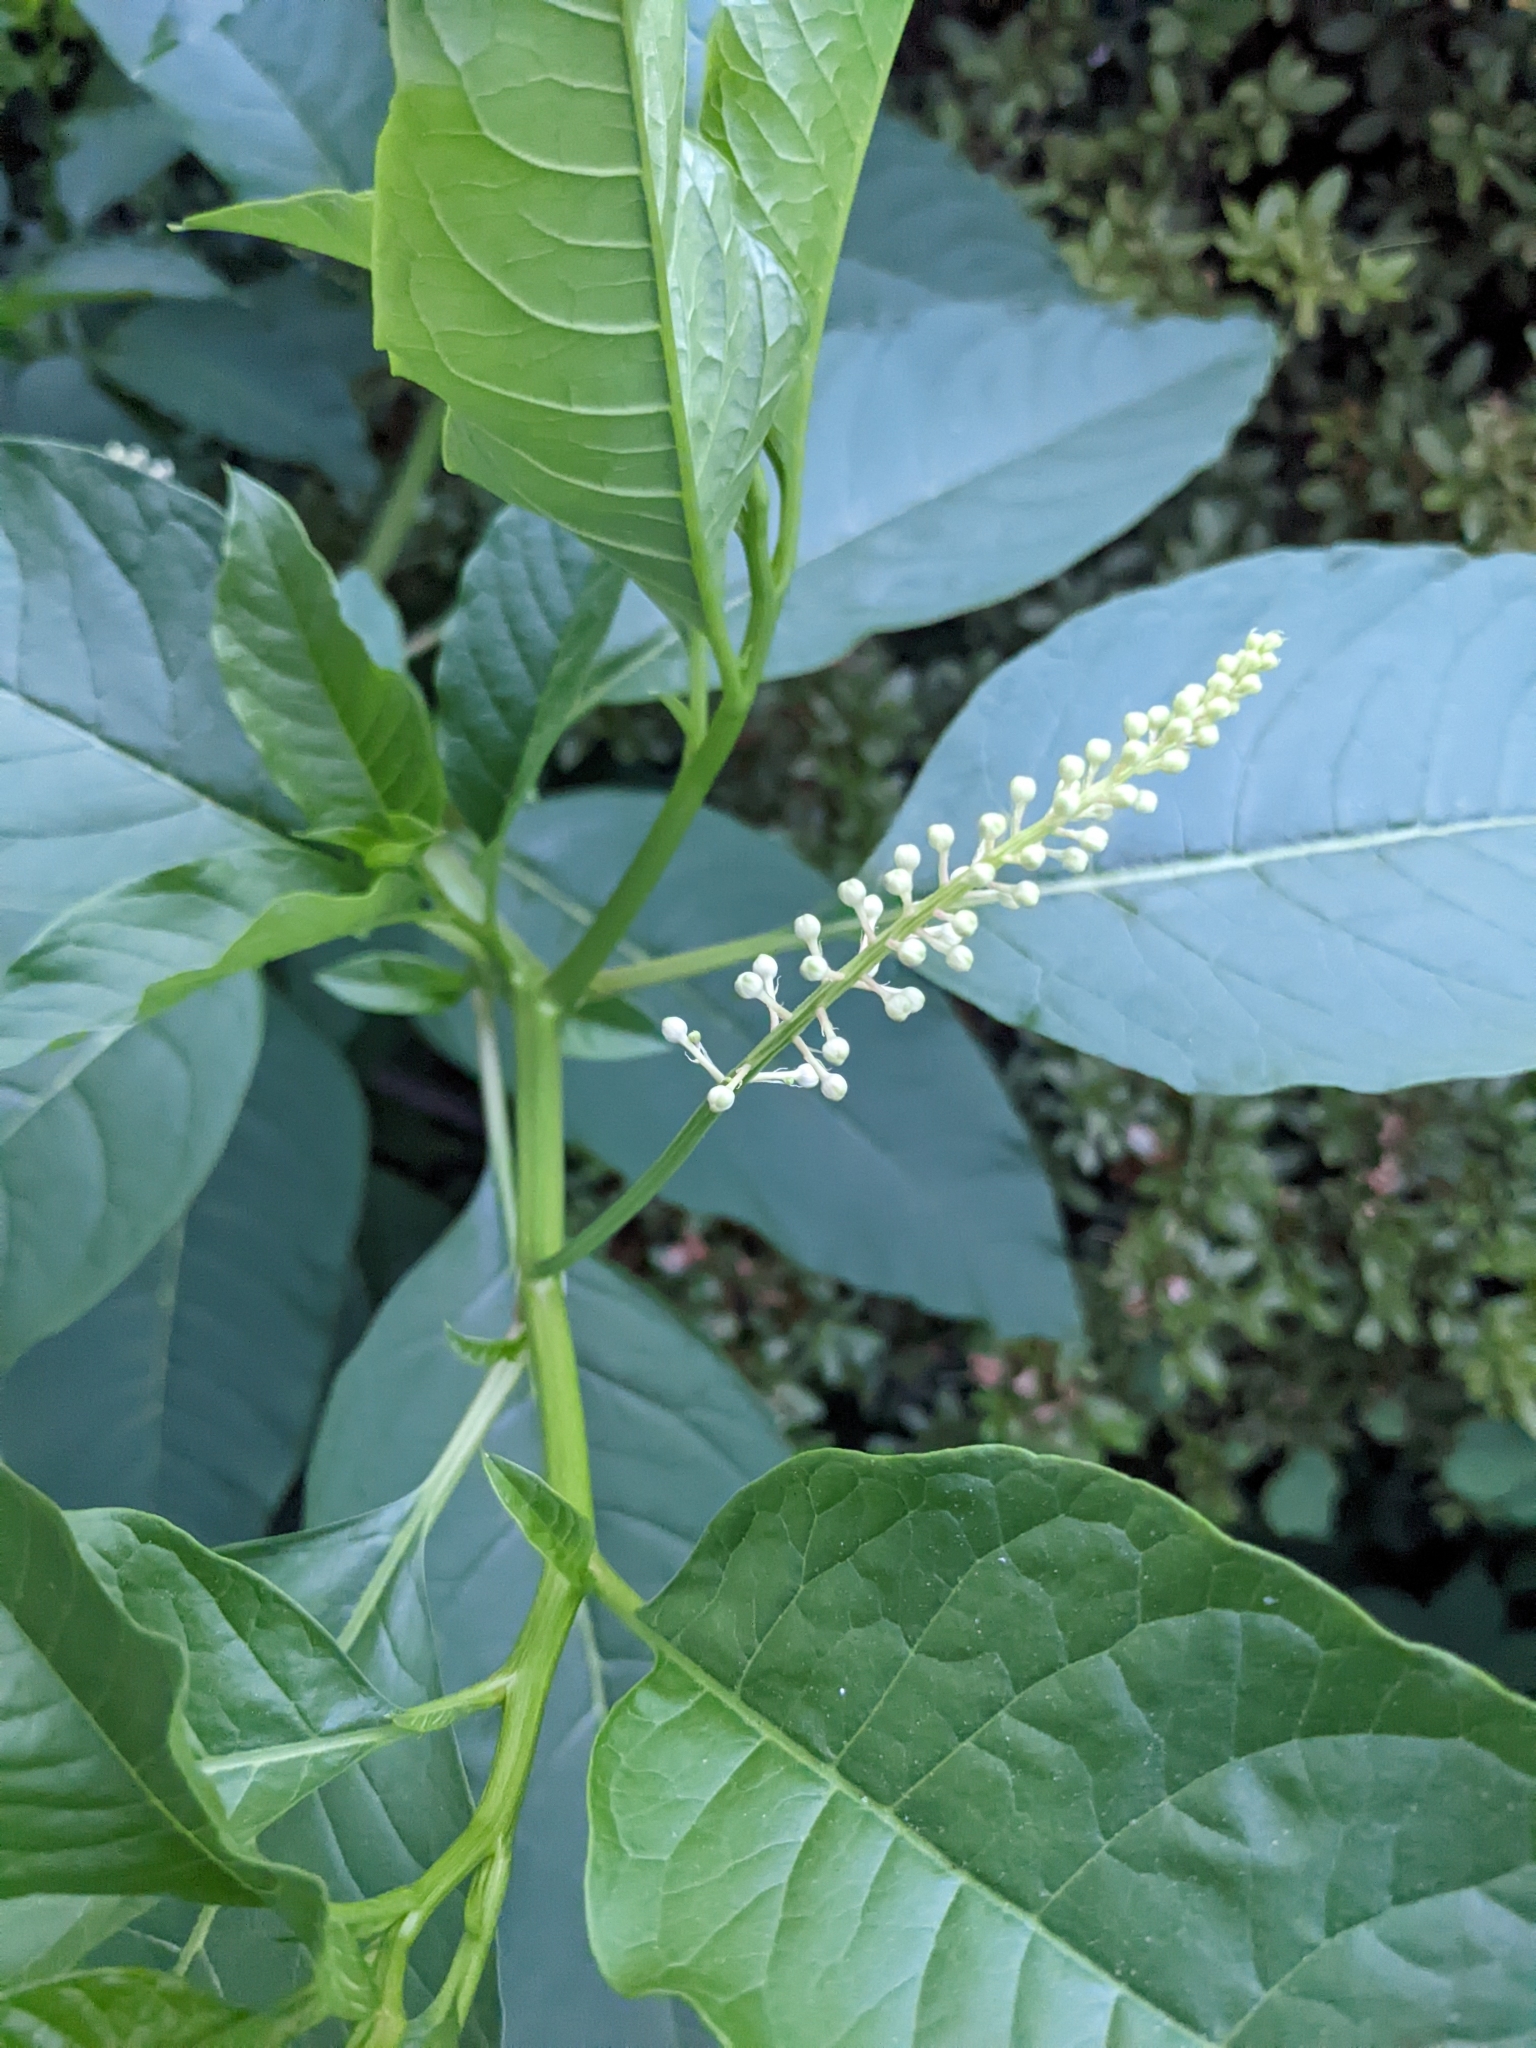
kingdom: Plantae
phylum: Tracheophyta
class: Magnoliopsida
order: Caryophyllales
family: Phytolaccaceae
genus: Phytolacca
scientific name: Phytolacca americana
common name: American pokeweed
